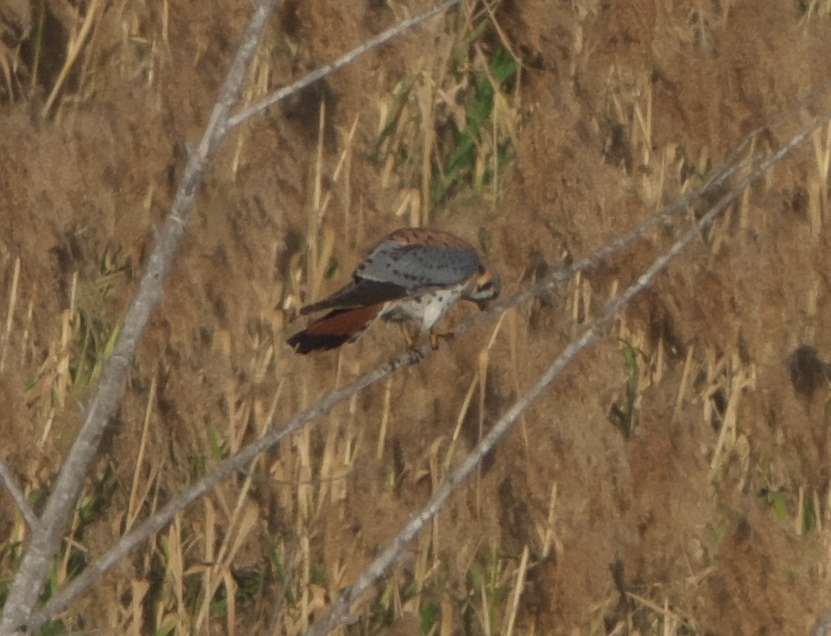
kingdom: Animalia
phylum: Chordata
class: Aves
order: Falconiformes
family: Falconidae
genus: Falco
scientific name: Falco sparverius
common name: American kestrel
